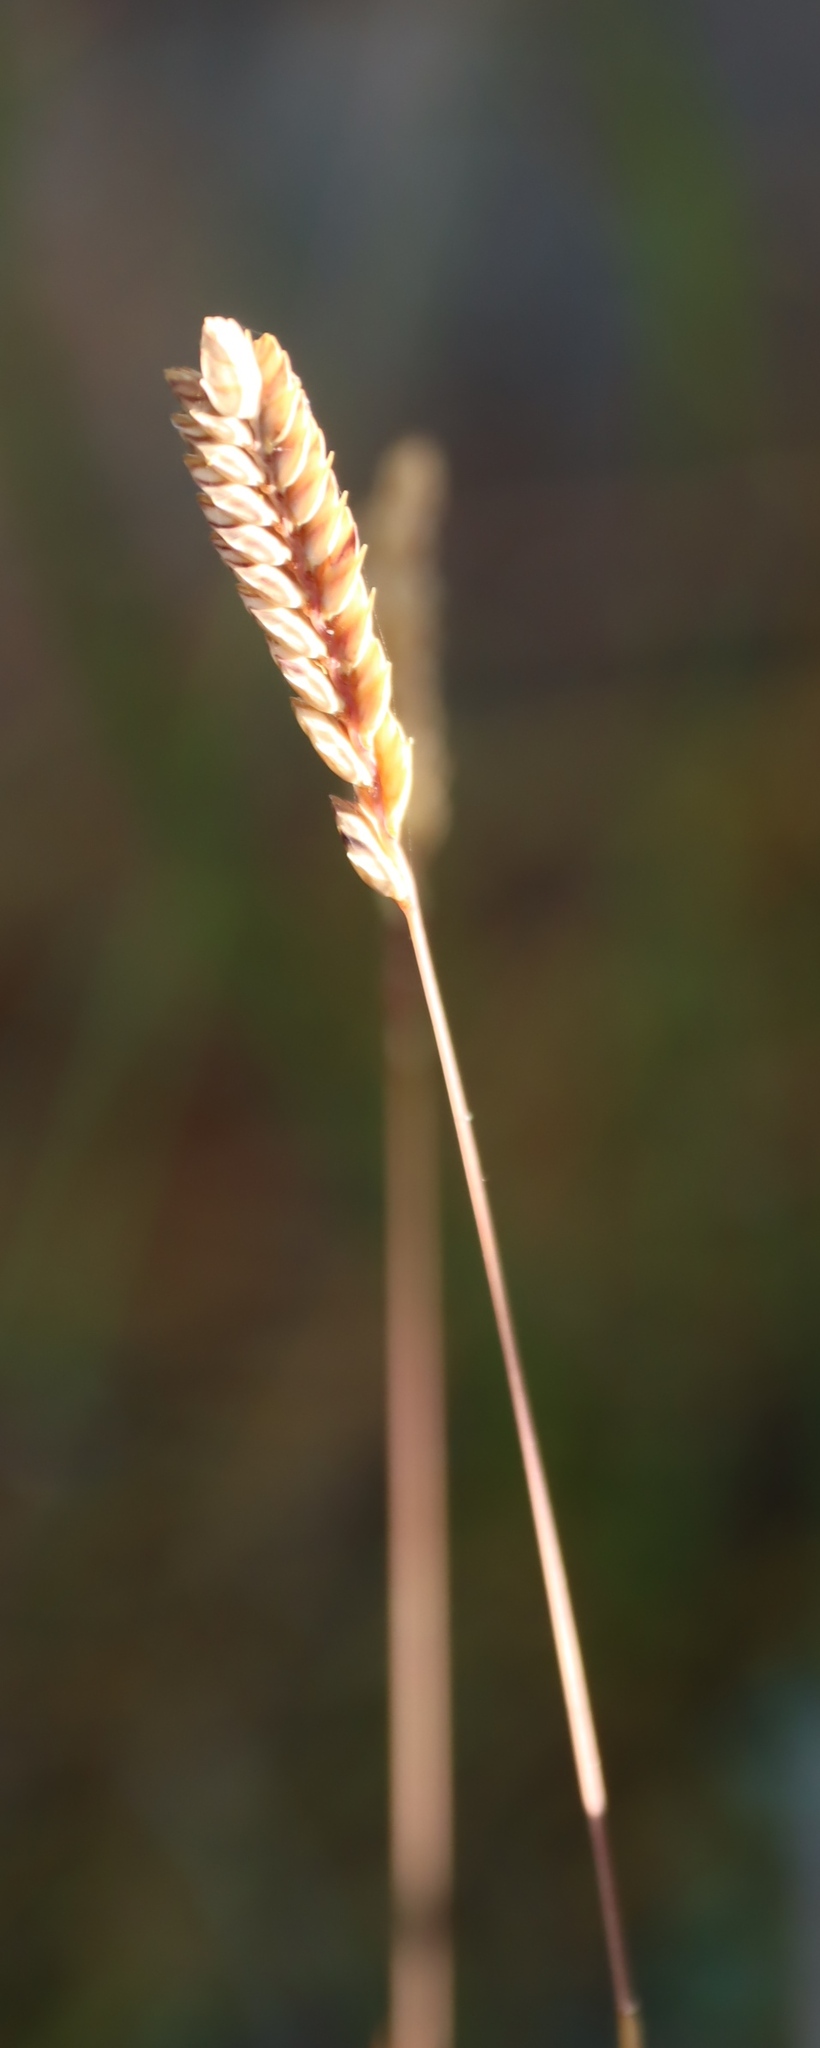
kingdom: Plantae
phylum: Tracheophyta
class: Liliopsida
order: Poales
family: Poaceae
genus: Tribolium
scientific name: Tribolium uniolae
